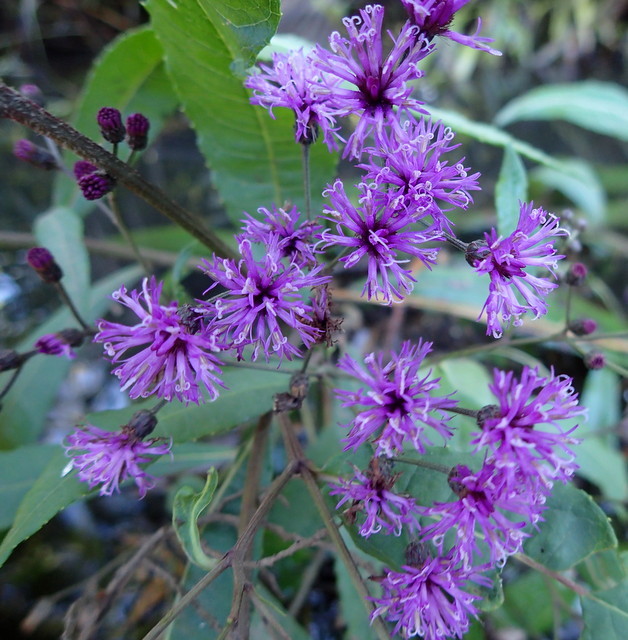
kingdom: Plantae
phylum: Tracheophyta
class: Magnoliopsida
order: Asterales
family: Asteraceae
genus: Vernonia
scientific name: Vernonia gigantea
